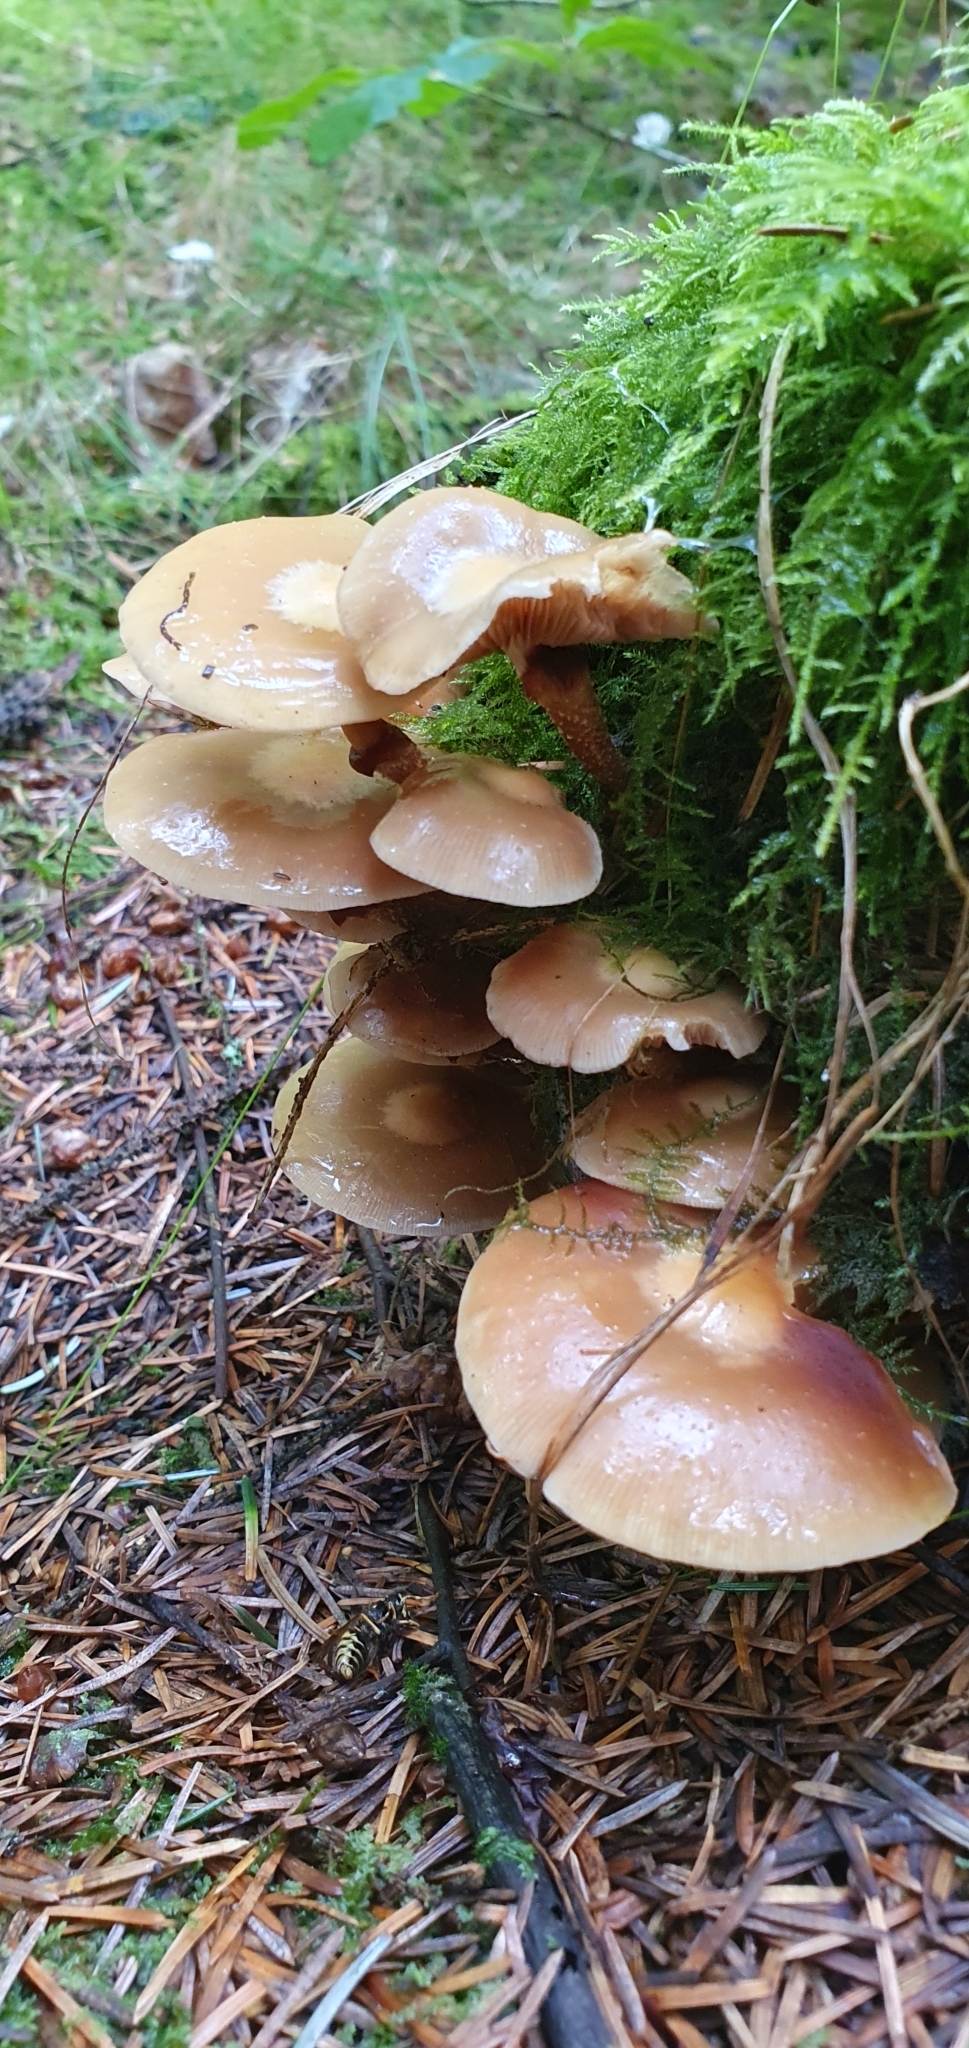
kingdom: Fungi
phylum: Basidiomycota
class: Agaricomycetes
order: Agaricales
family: Strophariaceae
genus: Kuehneromyces
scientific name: Kuehneromyces mutabilis
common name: Sheathed woodtuft
